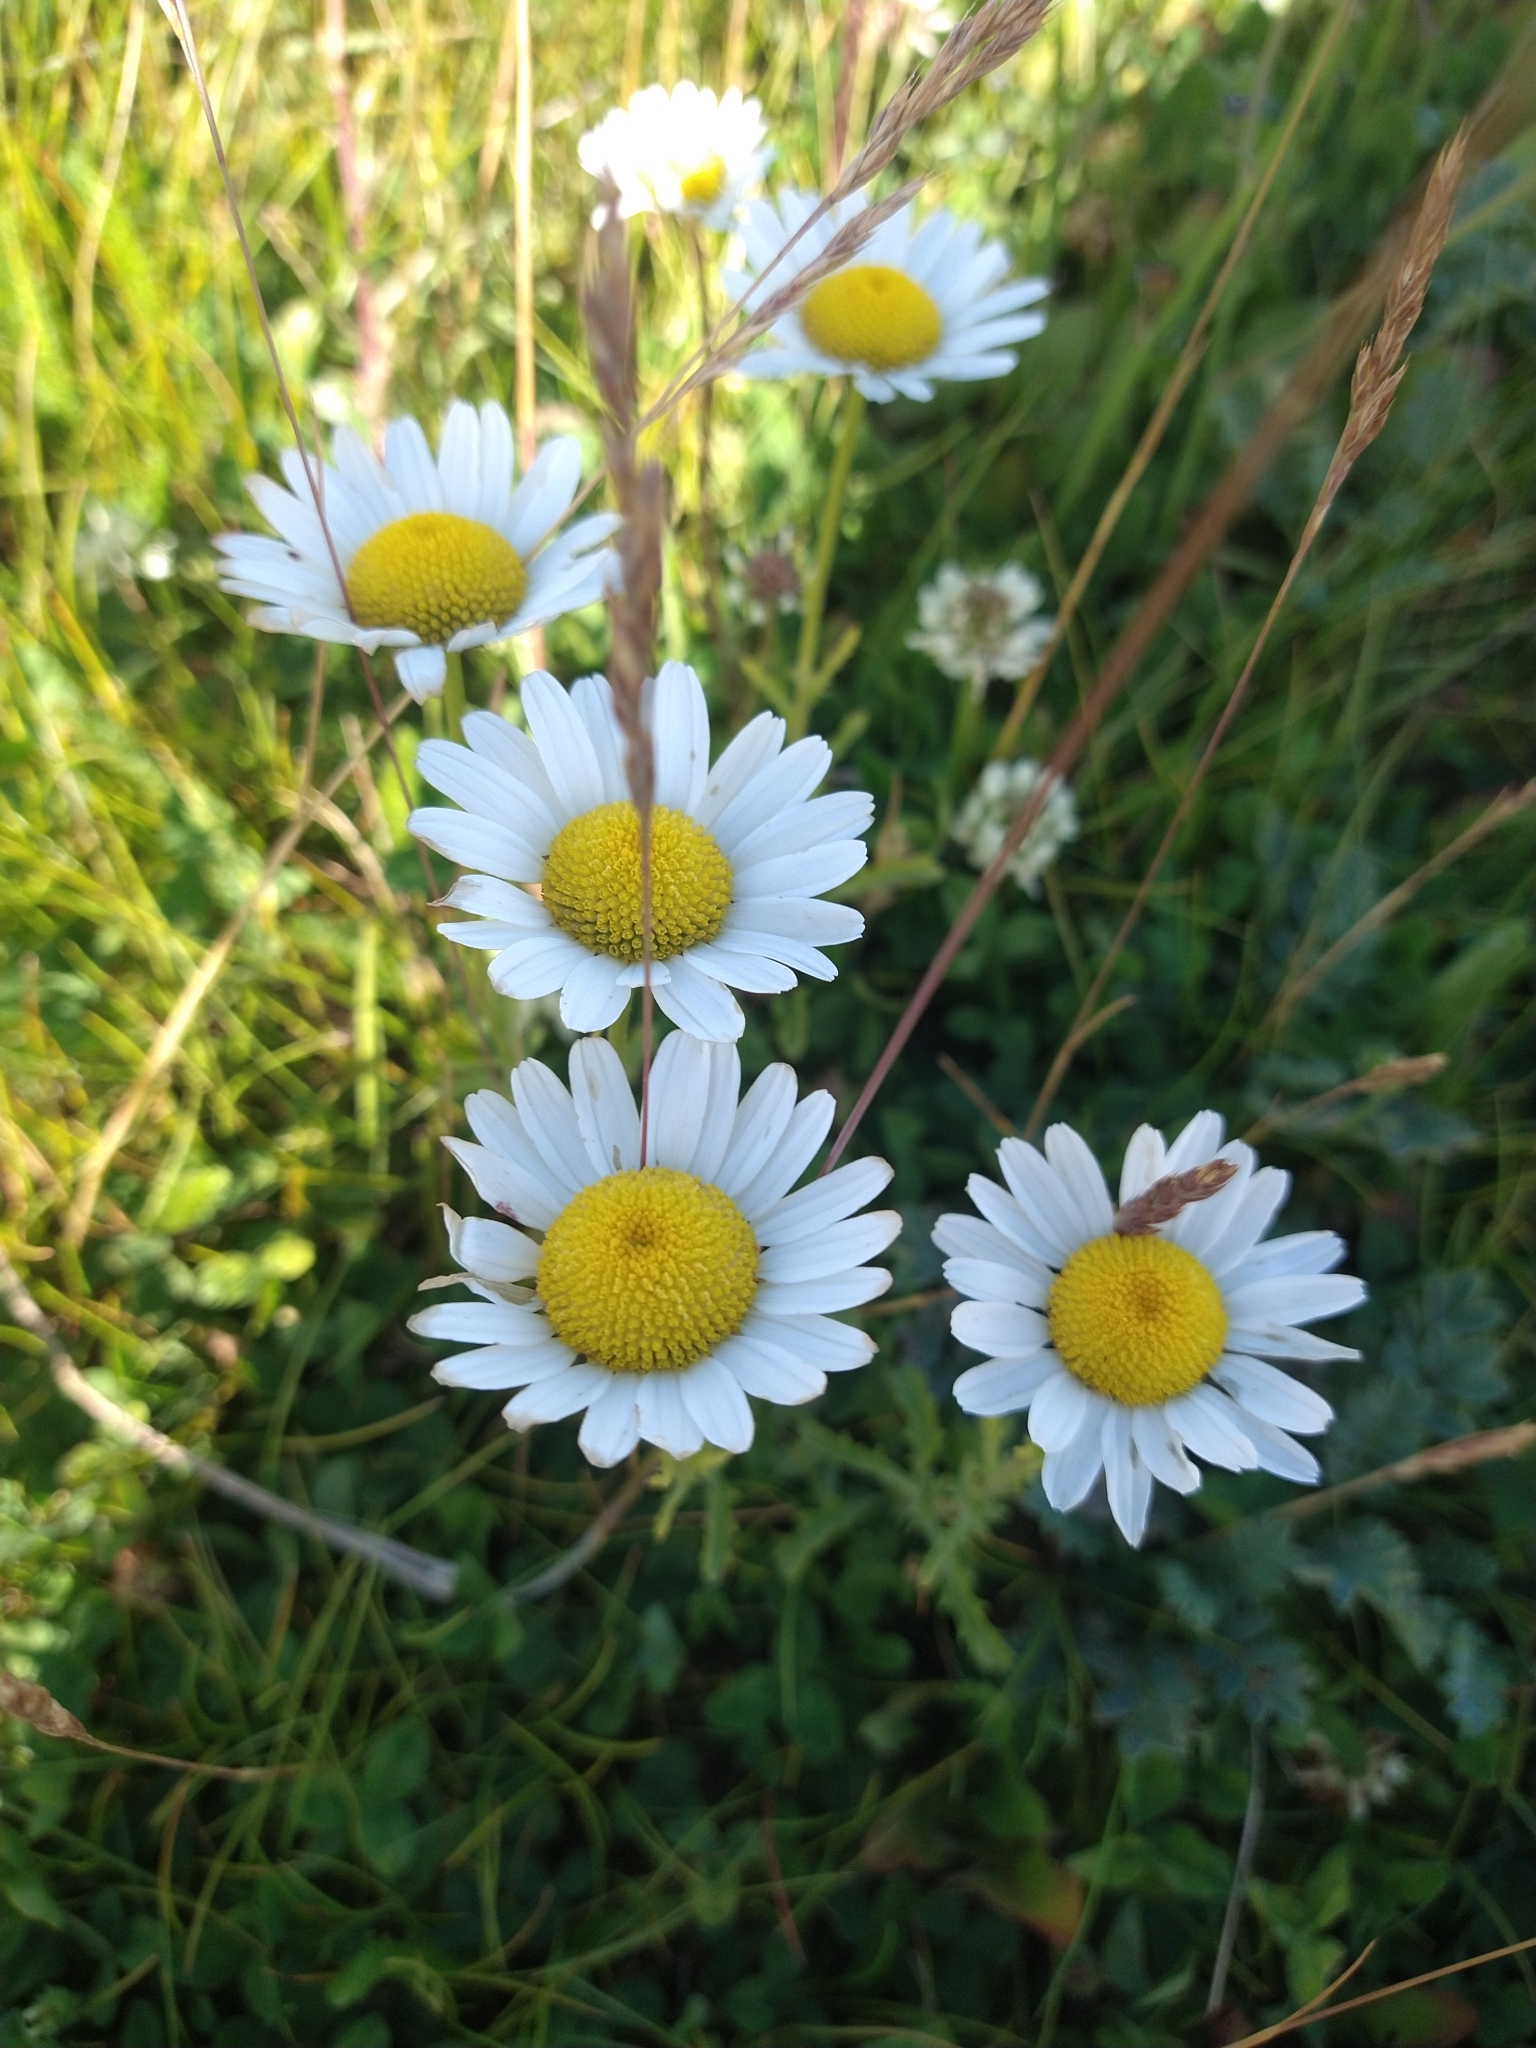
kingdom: Plantae
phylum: Tracheophyta
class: Magnoliopsida
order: Asterales
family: Asteraceae
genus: Leucanthemum
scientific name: Leucanthemum vulgare
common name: Oxeye daisy
